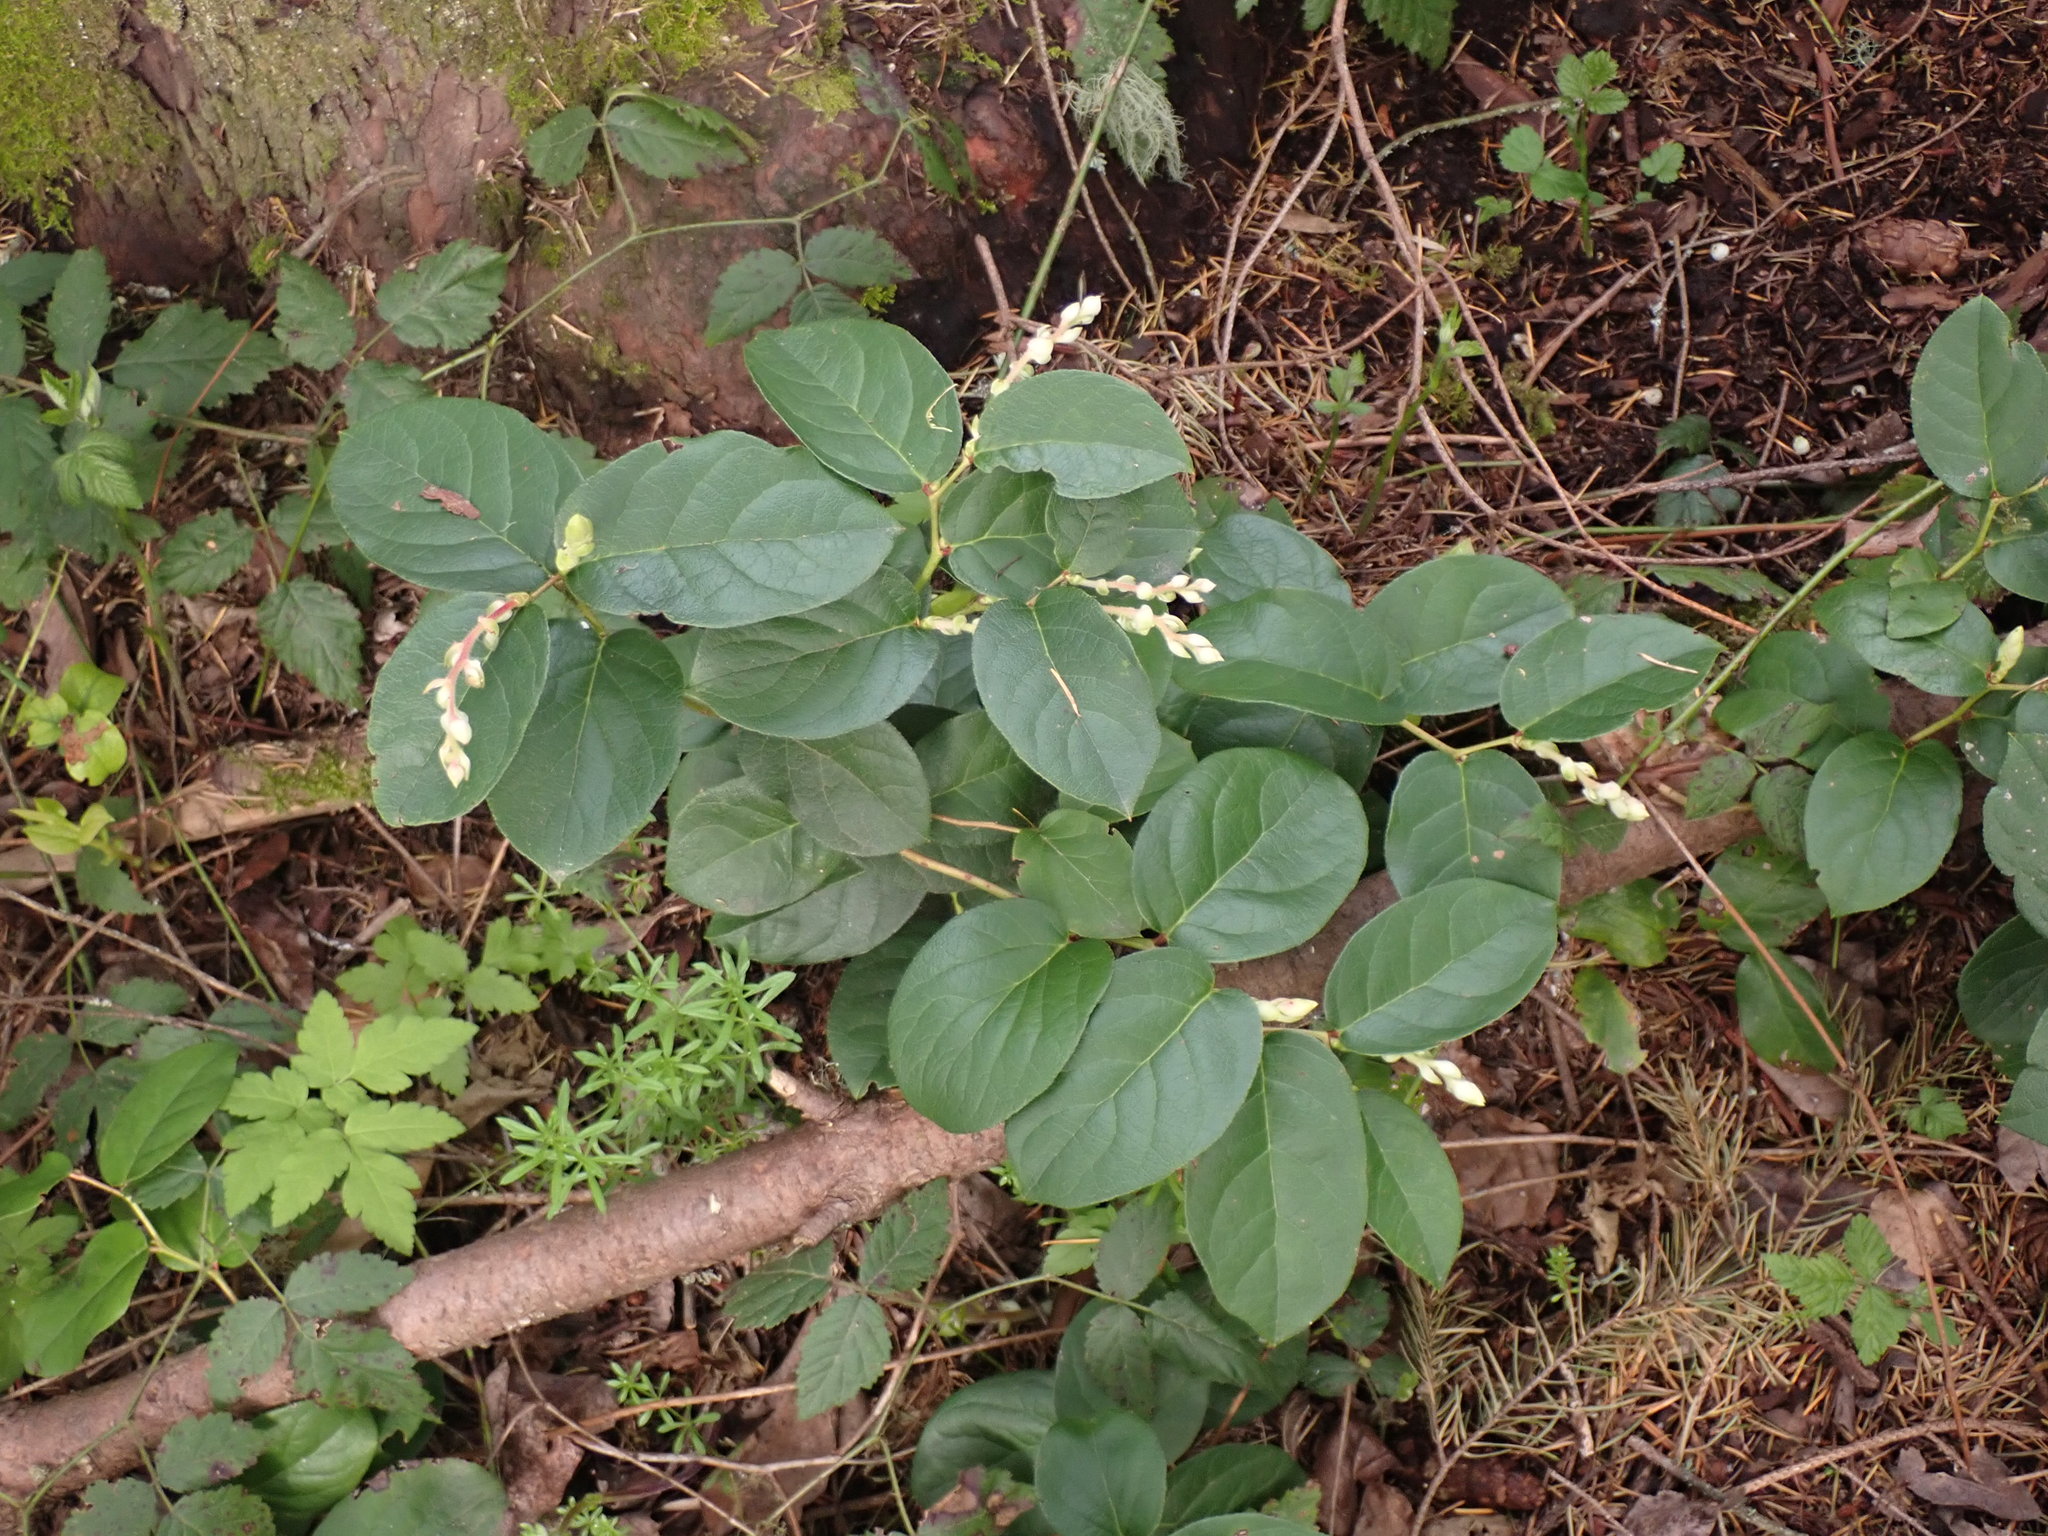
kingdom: Plantae
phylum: Tracheophyta
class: Magnoliopsida
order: Ericales
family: Ericaceae
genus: Gaultheria
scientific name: Gaultheria shallon
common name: Shallon
